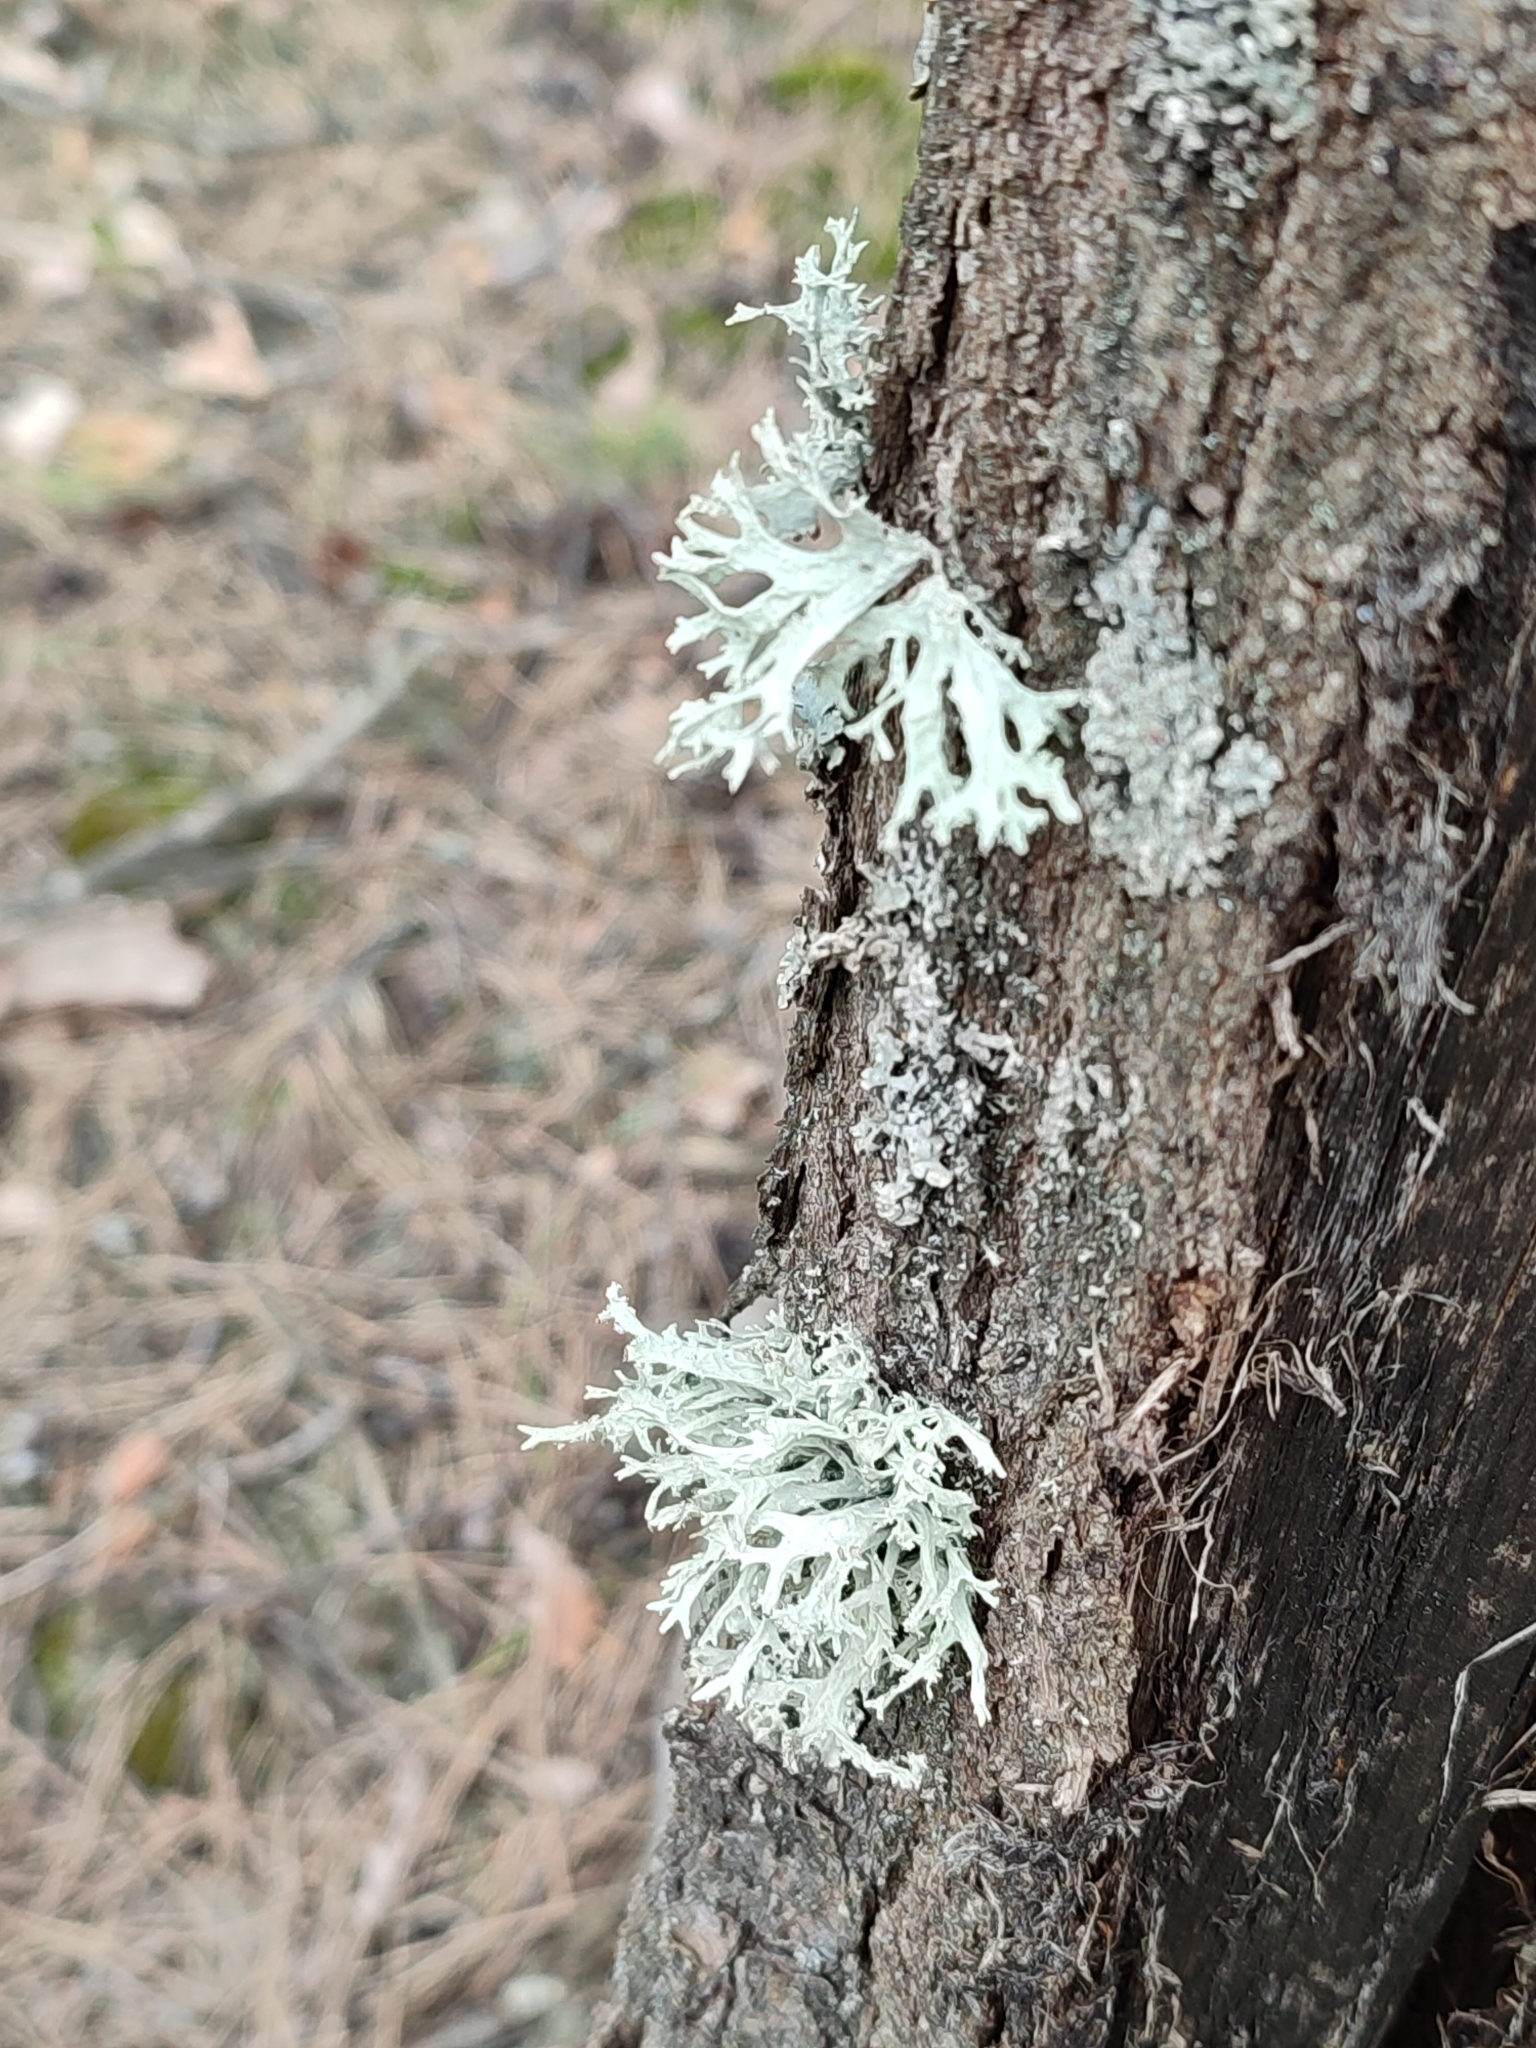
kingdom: Fungi
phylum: Ascomycota
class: Lecanoromycetes
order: Lecanorales
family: Parmeliaceae
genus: Evernia
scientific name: Evernia prunastri
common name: Oak moss
